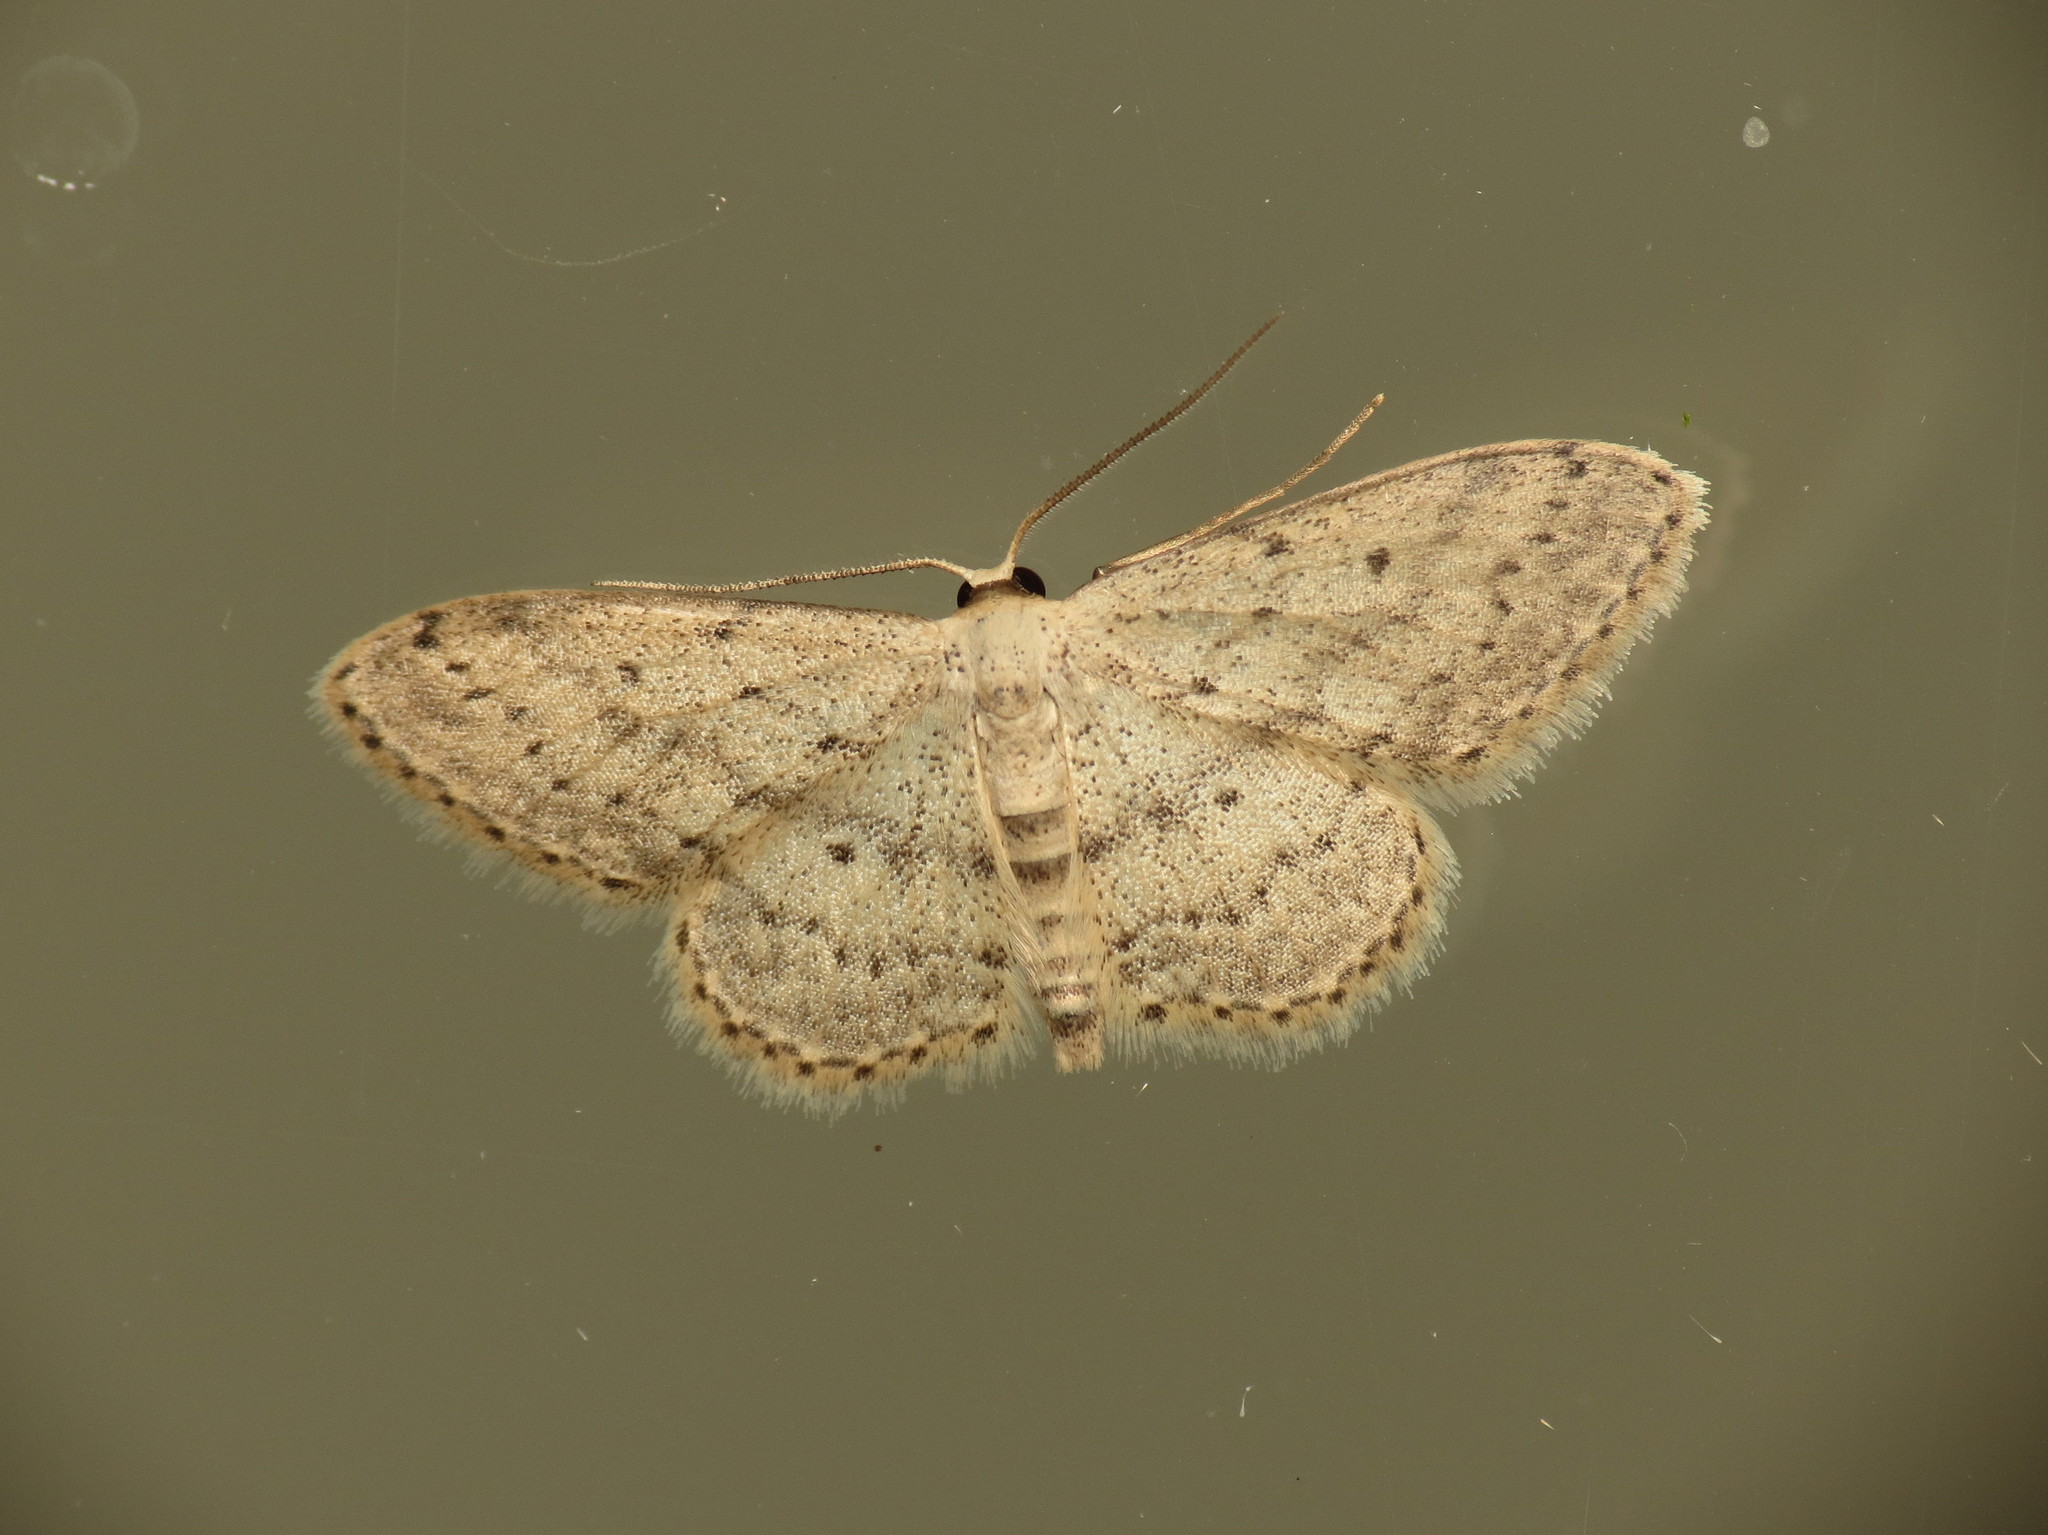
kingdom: Animalia
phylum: Arthropoda
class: Insecta
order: Lepidoptera
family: Geometridae
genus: Idaea
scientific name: Idaea seriata
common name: Small dusty wave
